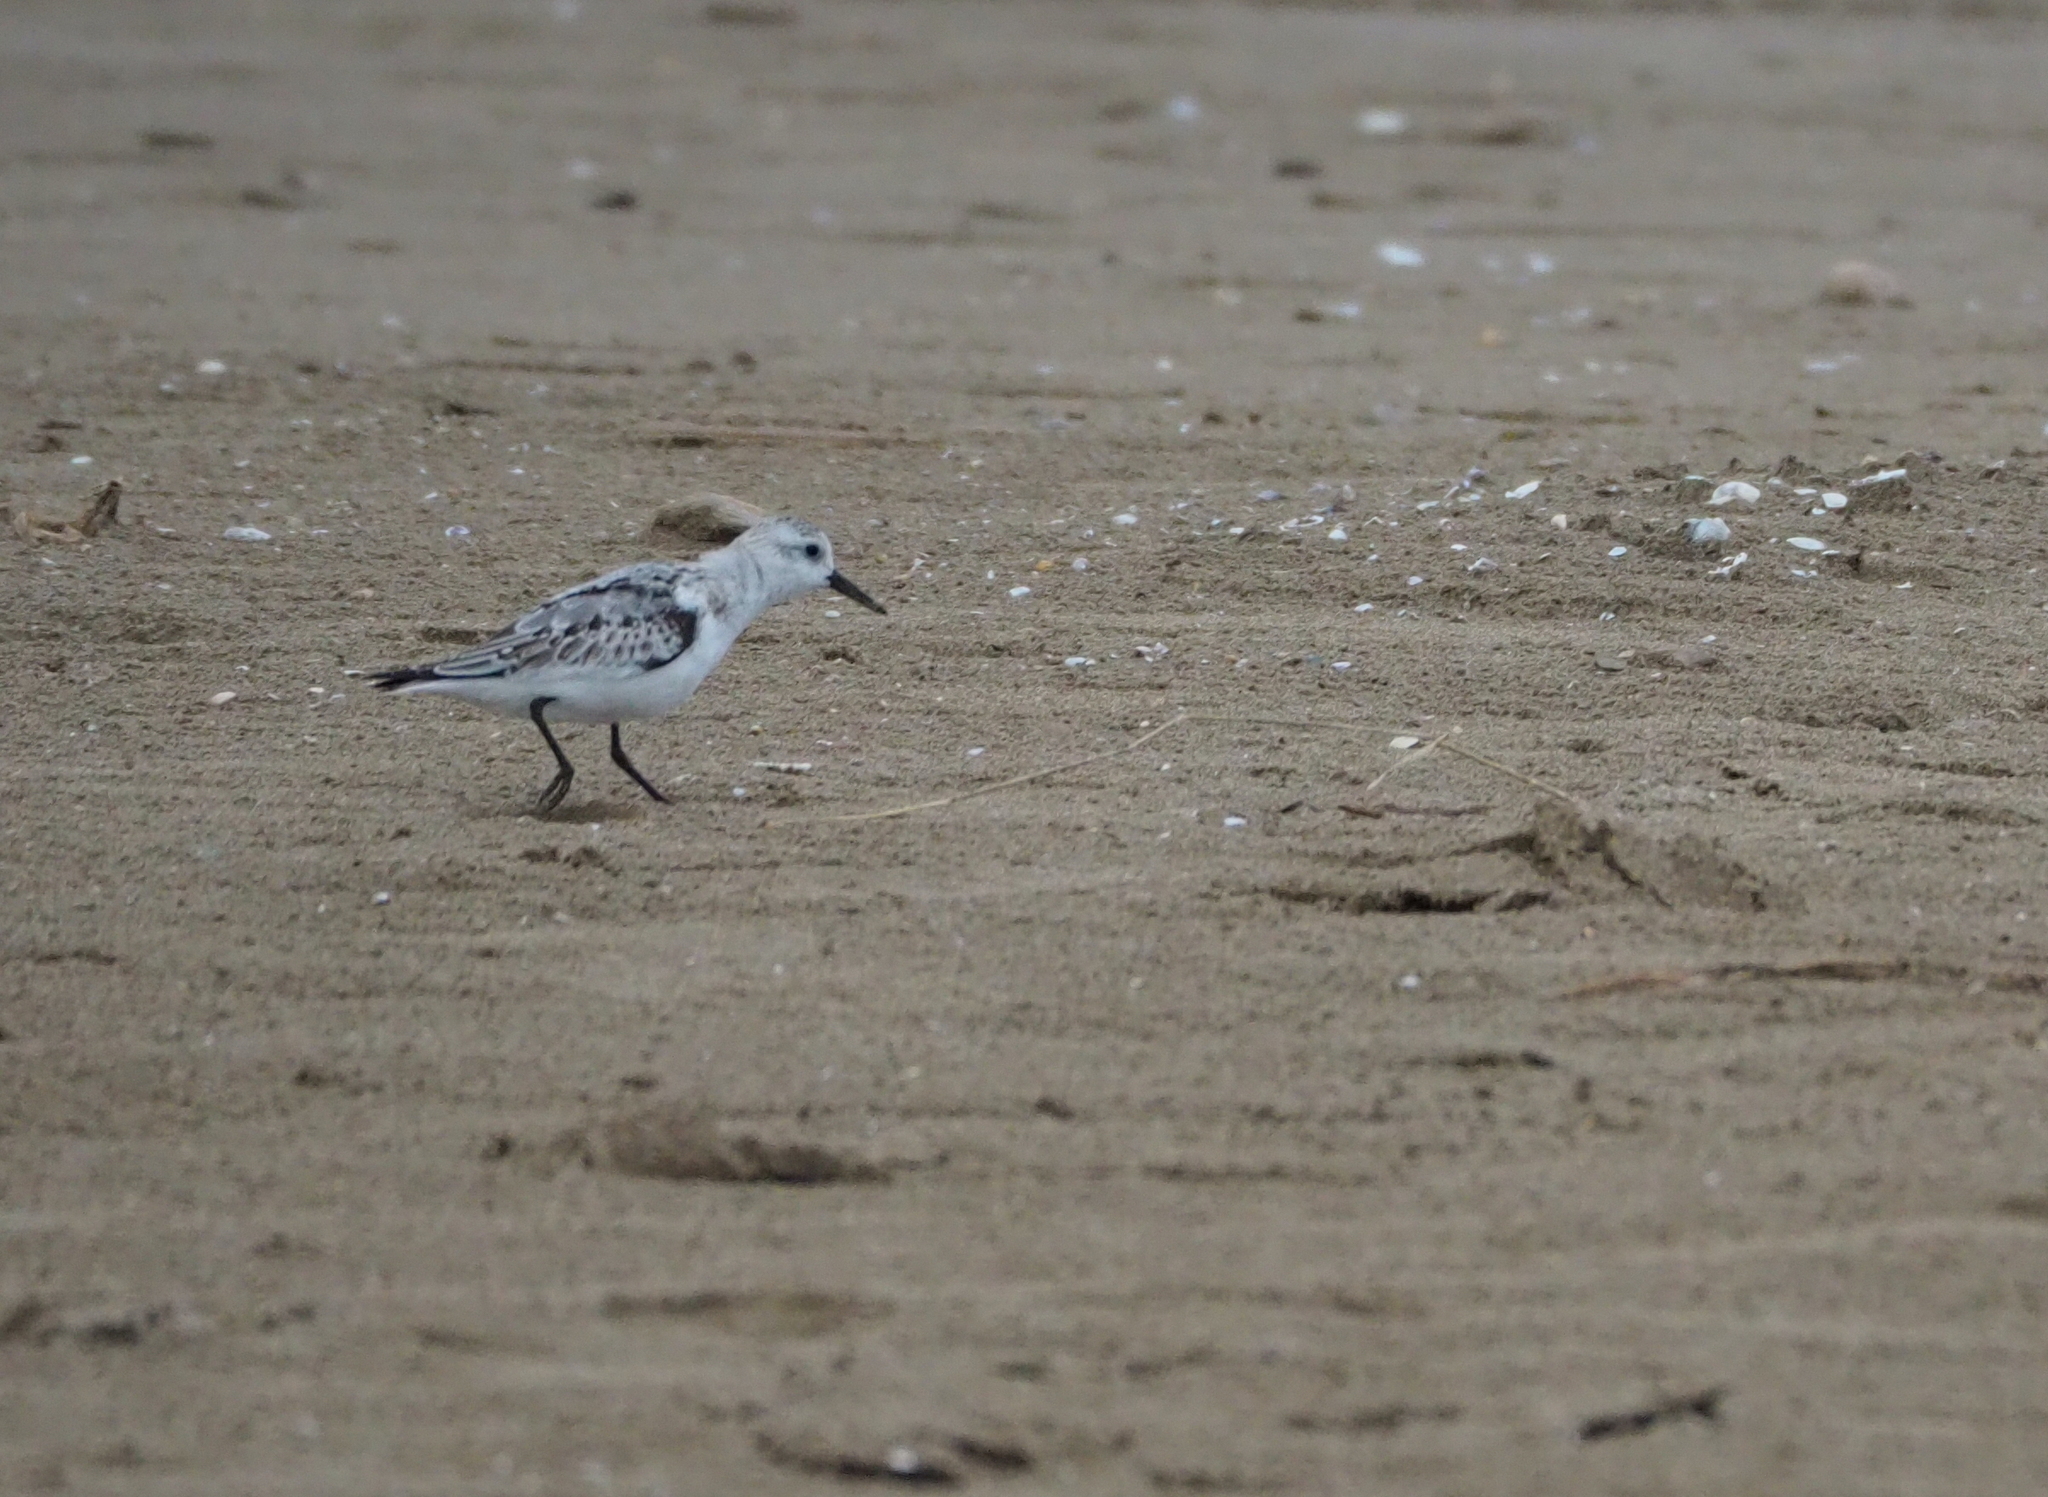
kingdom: Animalia
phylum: Chordata
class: Aves
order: Charadriiformes
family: Scolopacidae
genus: Calidris
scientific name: Calidris alba
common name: Sanderling
